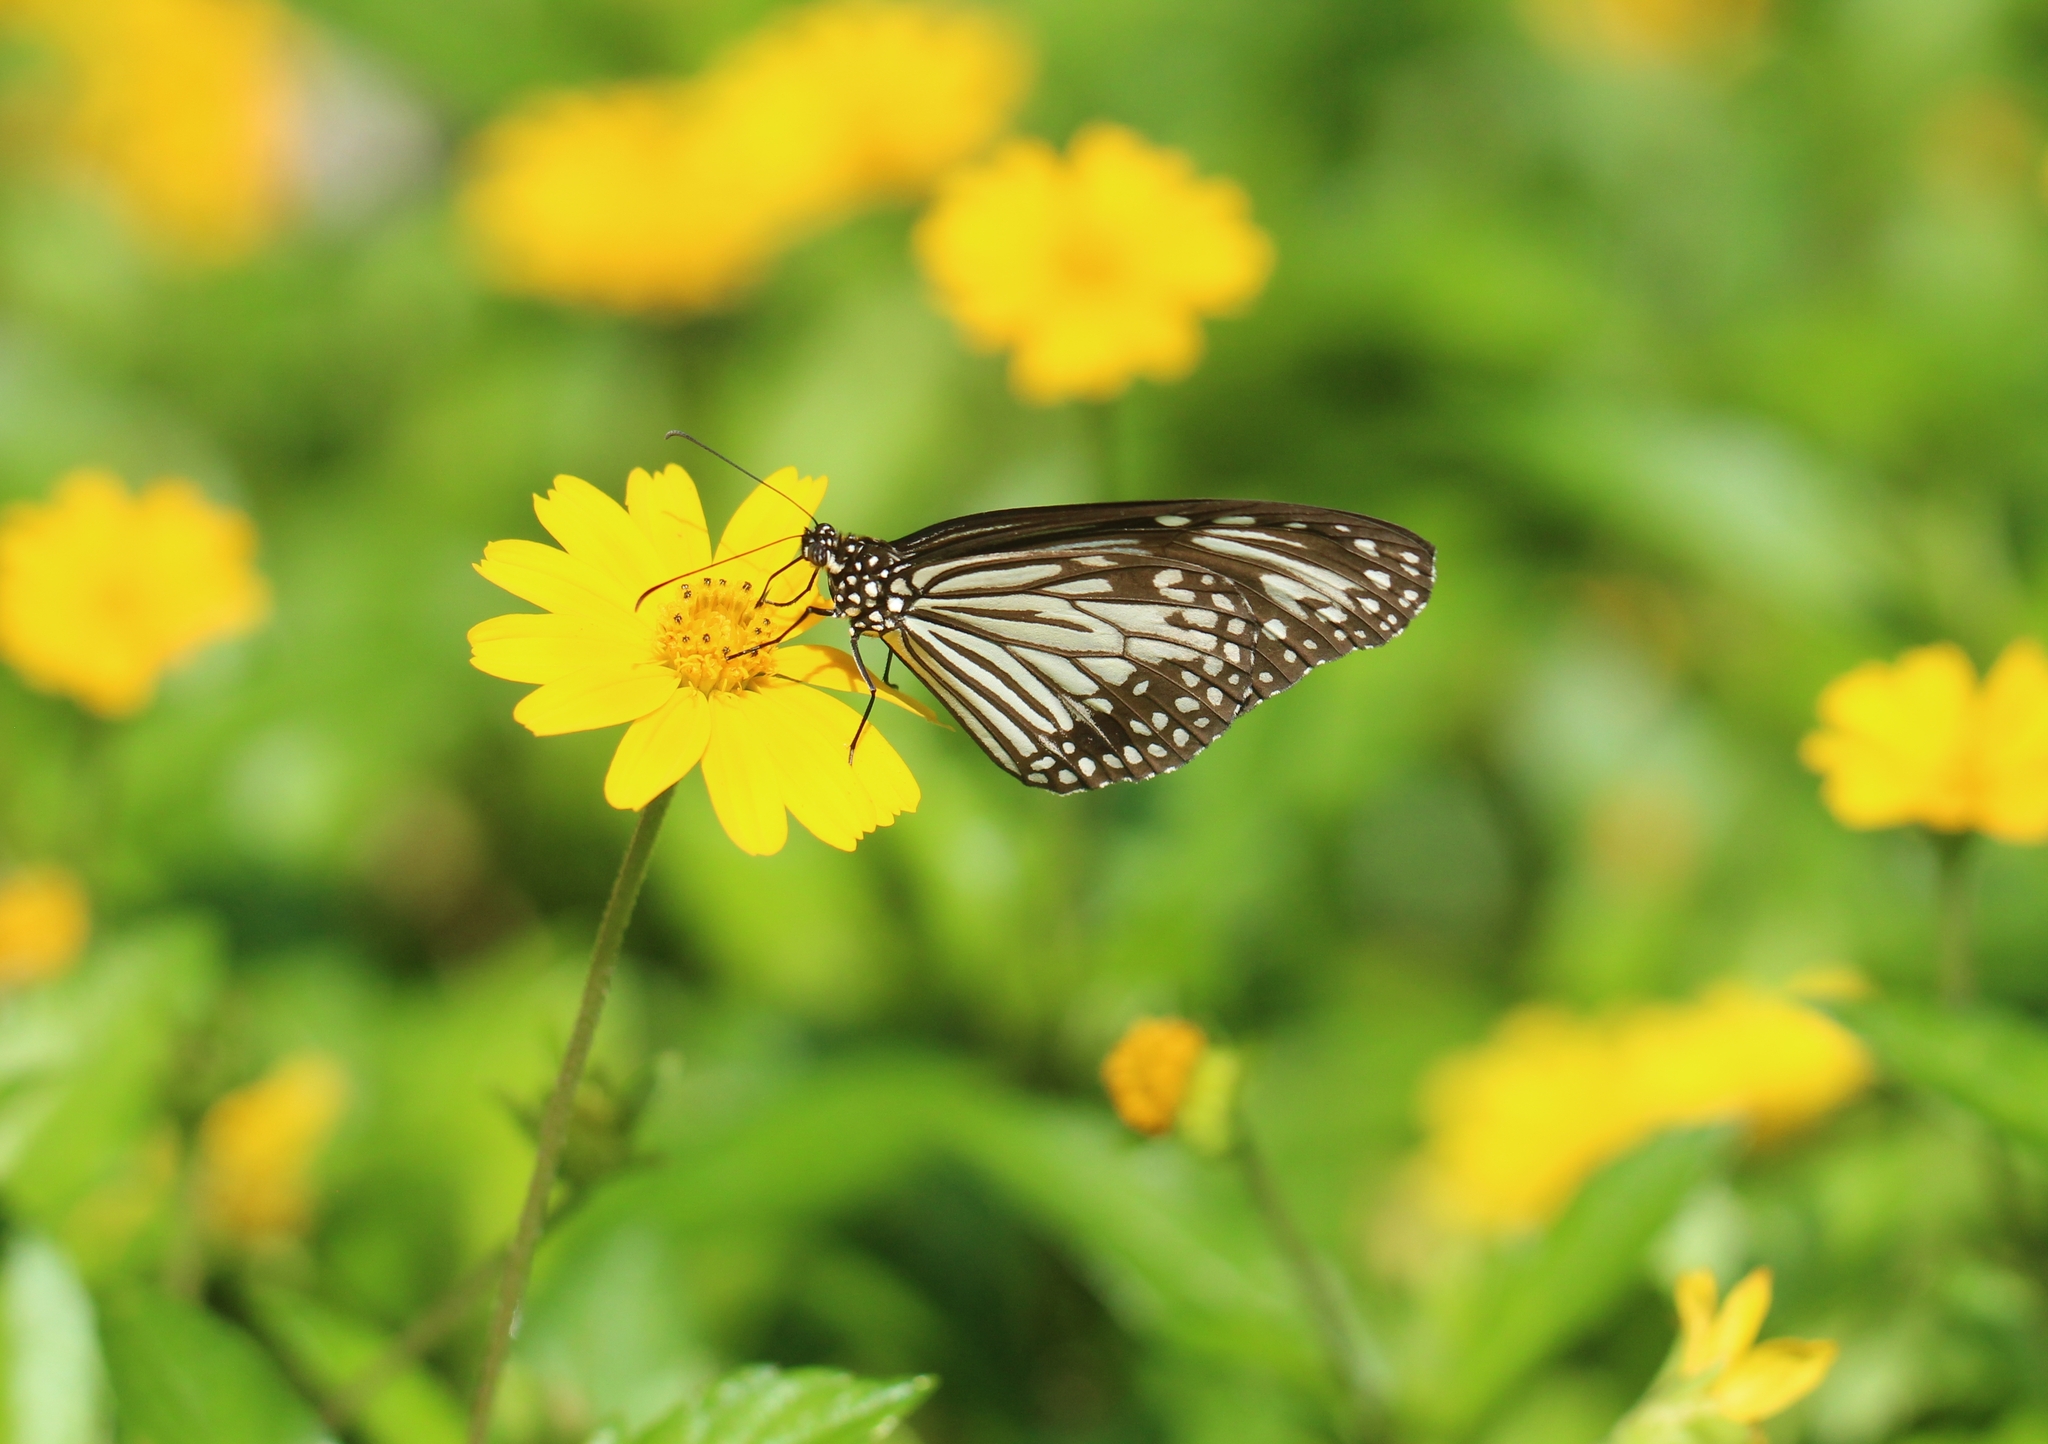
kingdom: Animalia
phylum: Arthropoda
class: Insecta
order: Lepidoptera
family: Nymphalidae
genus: Parantica
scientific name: Parantica aglea
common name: Glassy tiger
